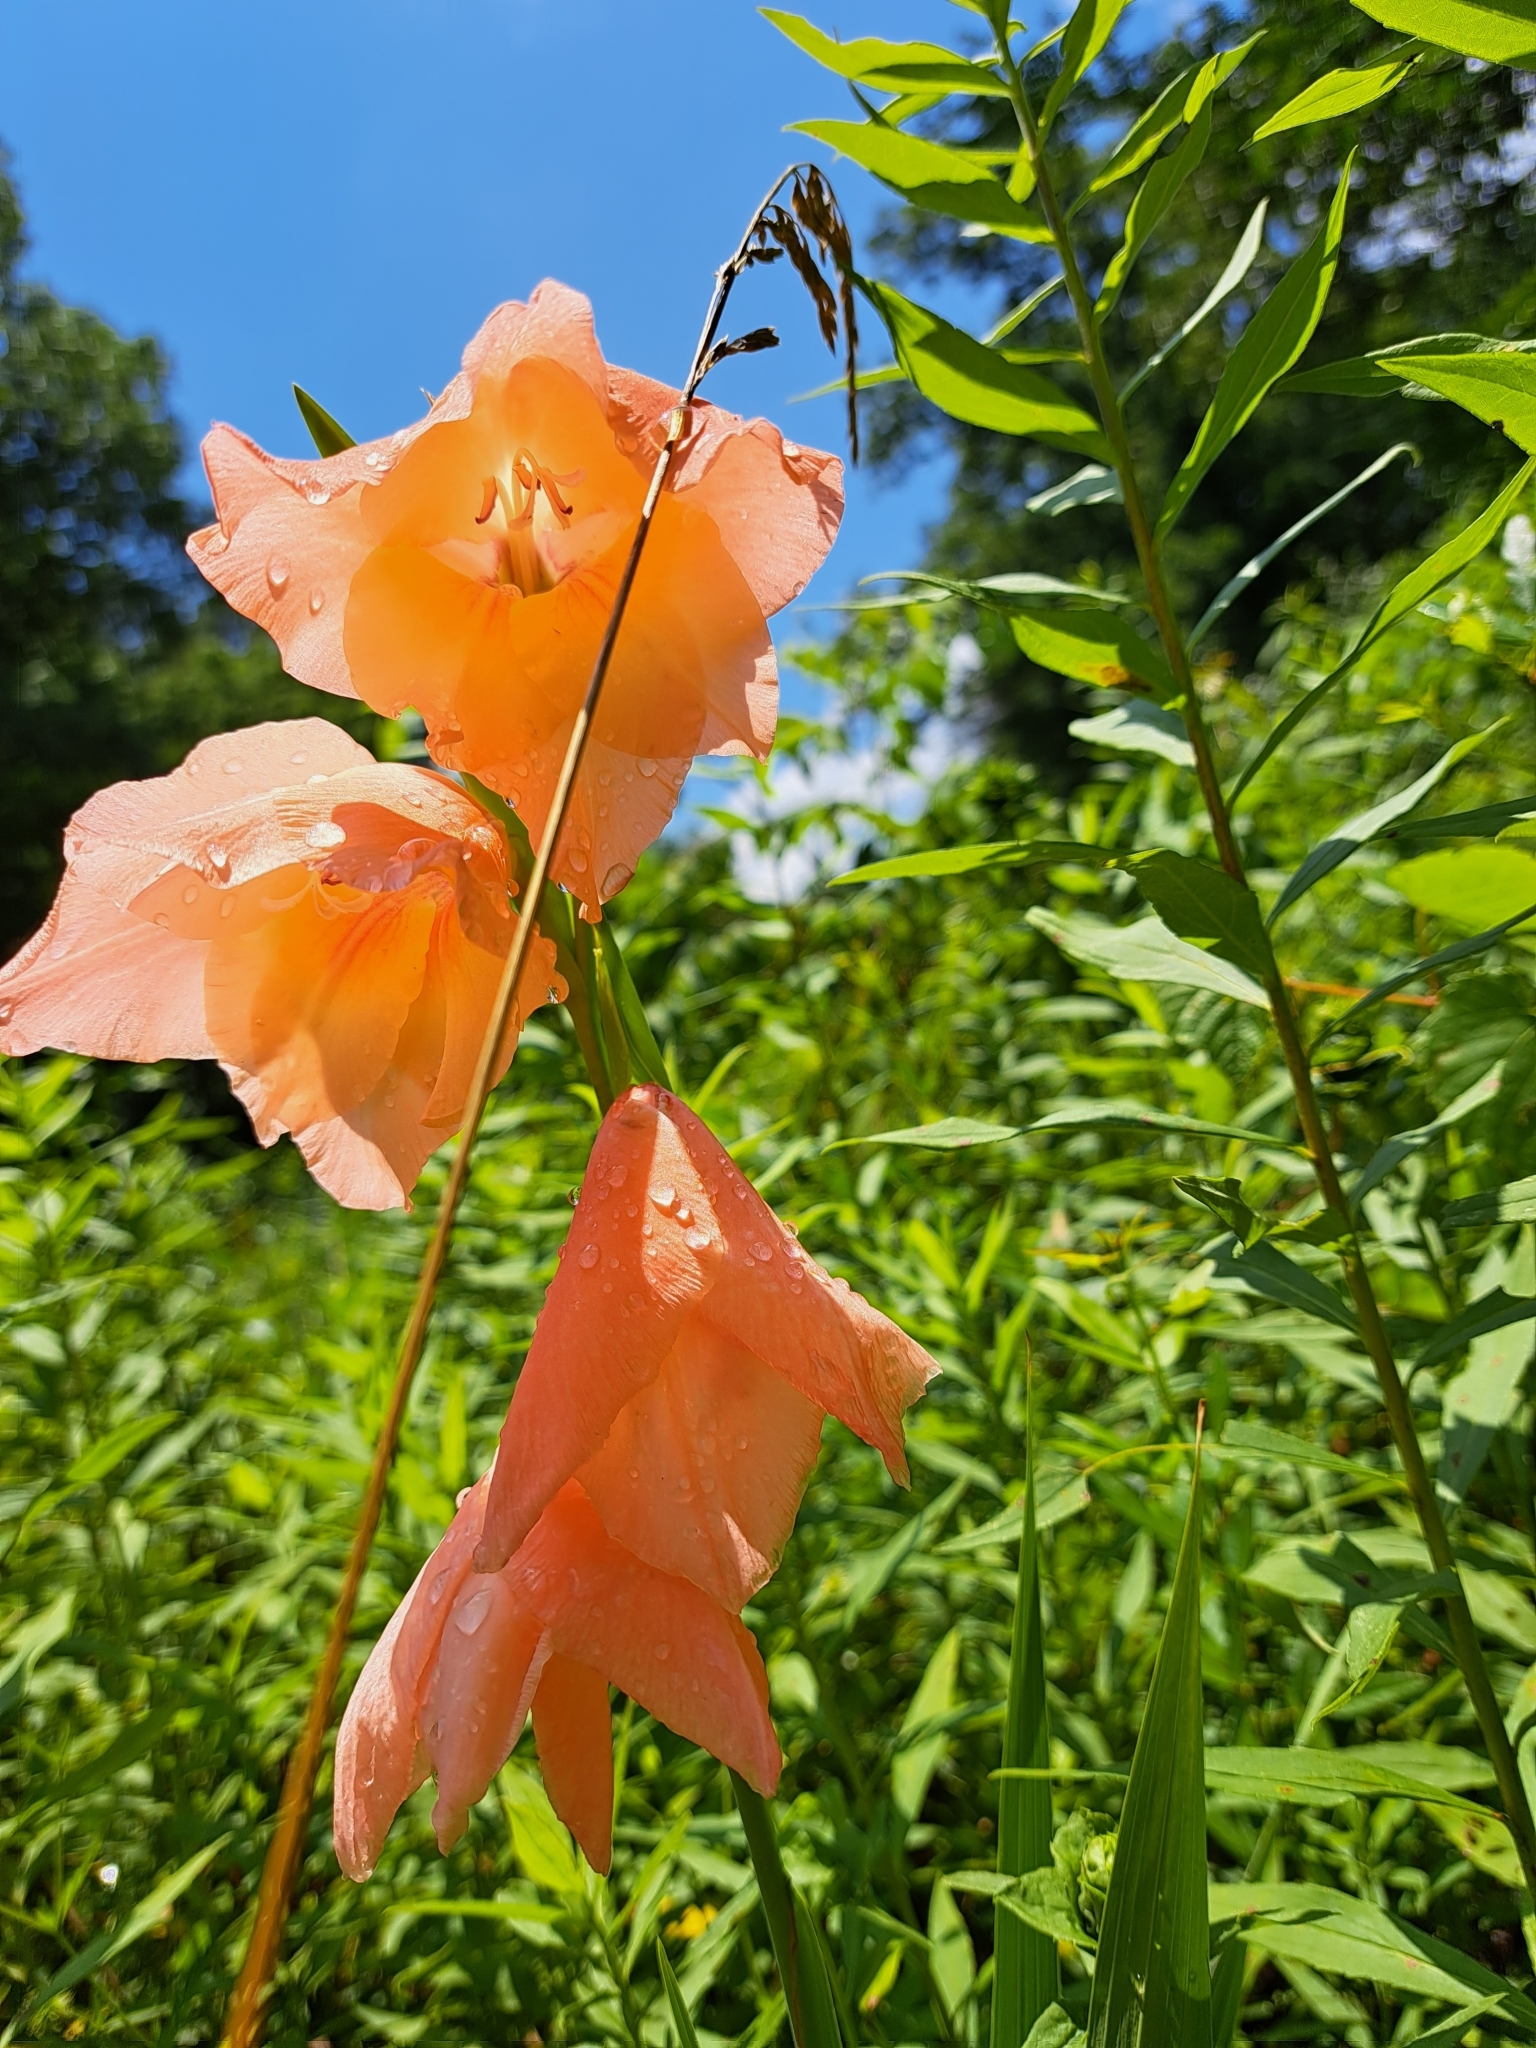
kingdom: Plantae
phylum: Tracheophyta
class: Liliopsida
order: Asparagales
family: Iridaceae
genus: Gladiolus
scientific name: Gladiolus dalenii
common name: Cornflag
